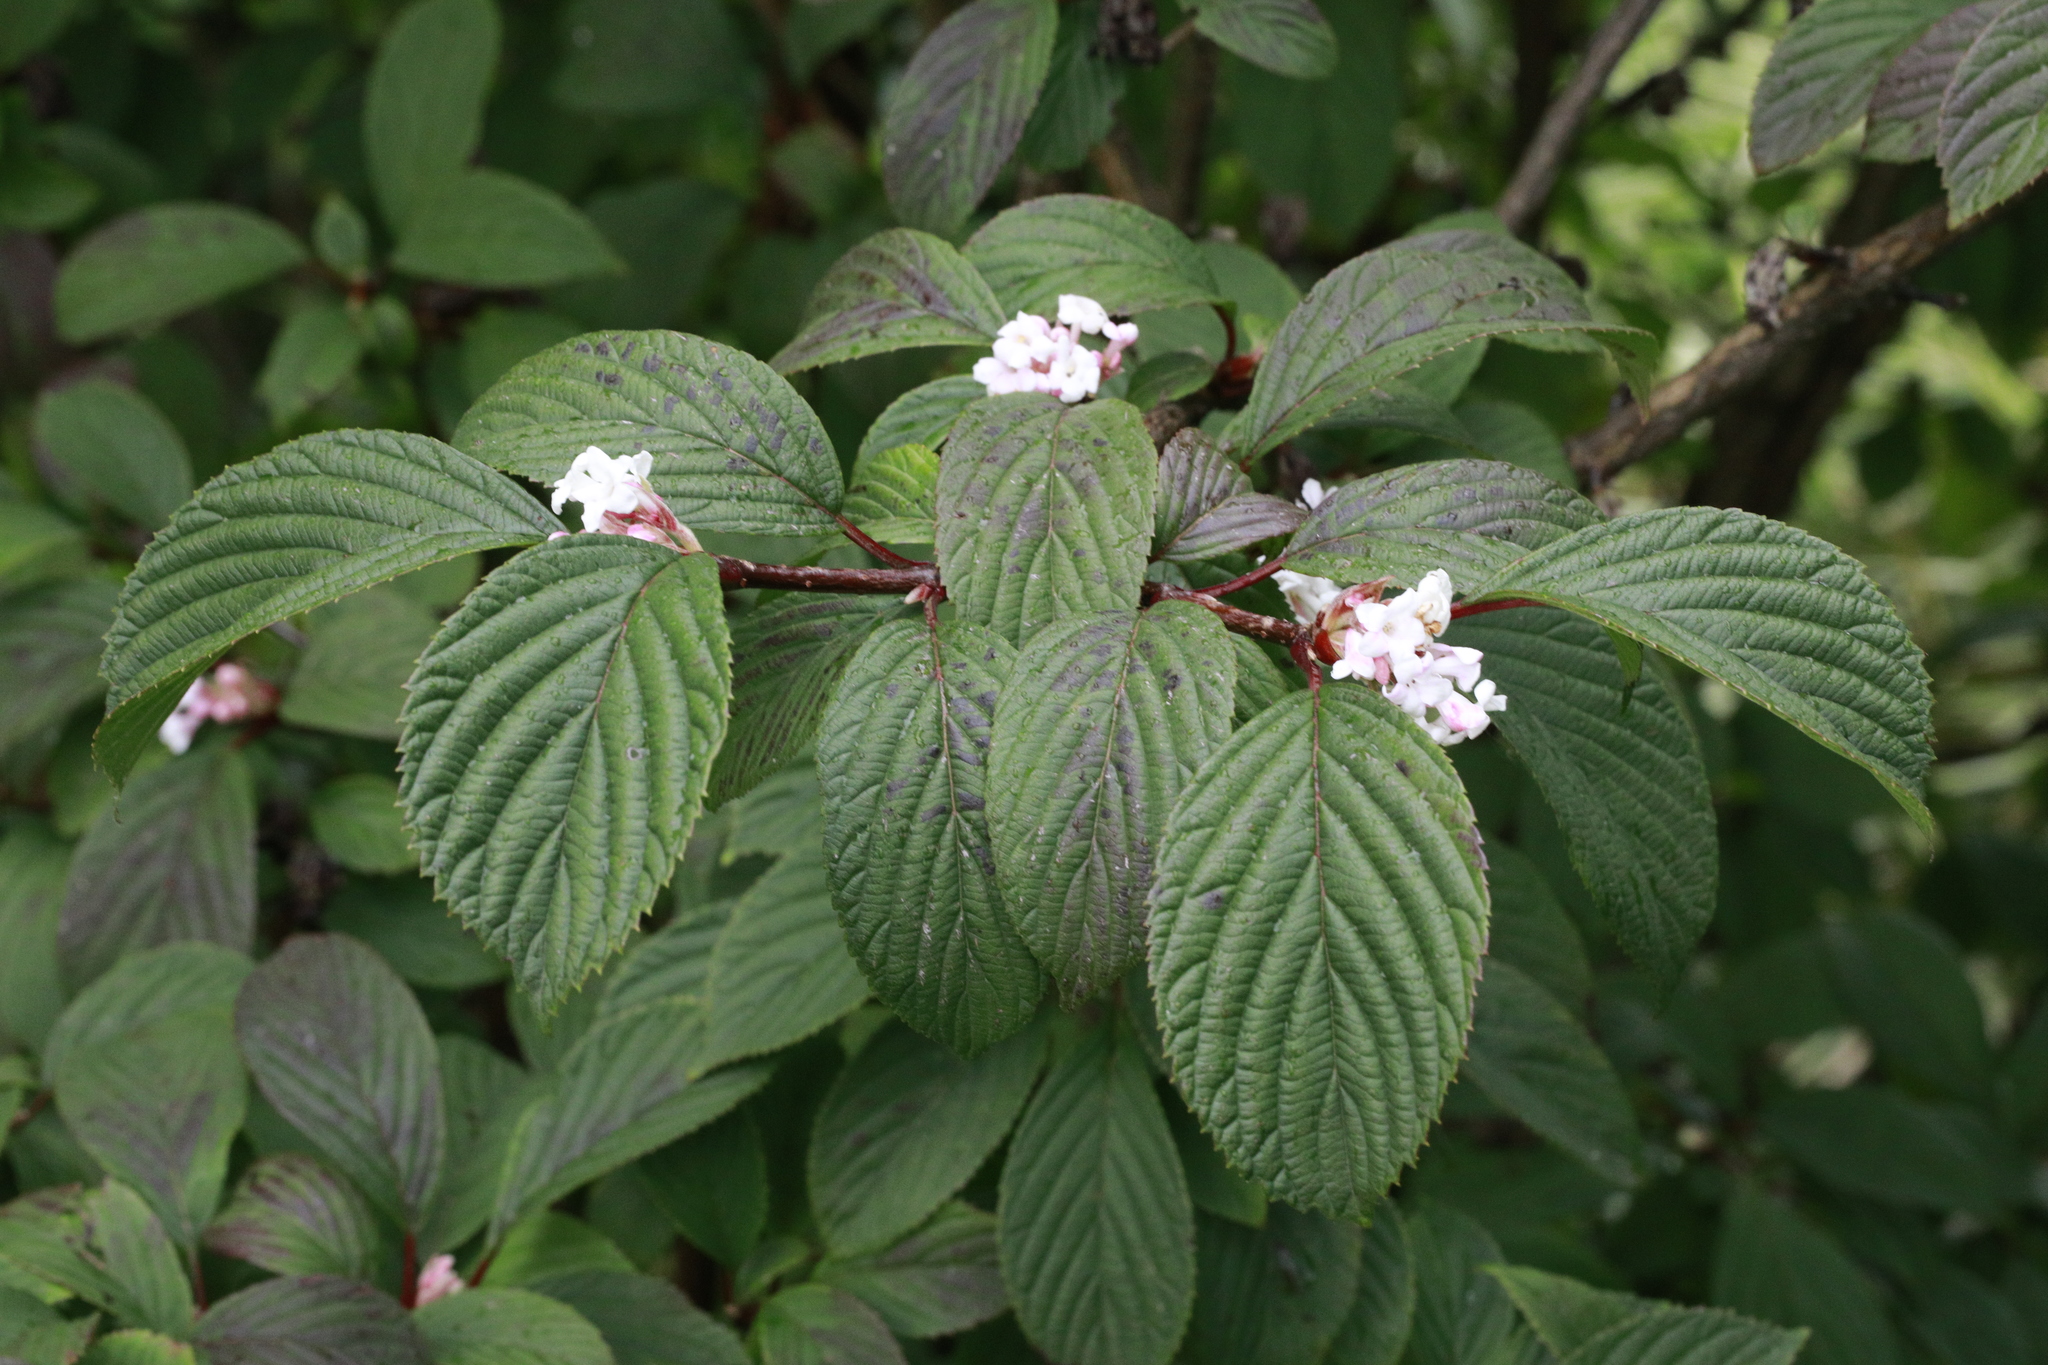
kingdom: Plantae
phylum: Tracheophyta
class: Magnoliopsida
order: Dipsacales
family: Viburnaceae
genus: Viburnum
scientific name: Viburnum bodnantense
